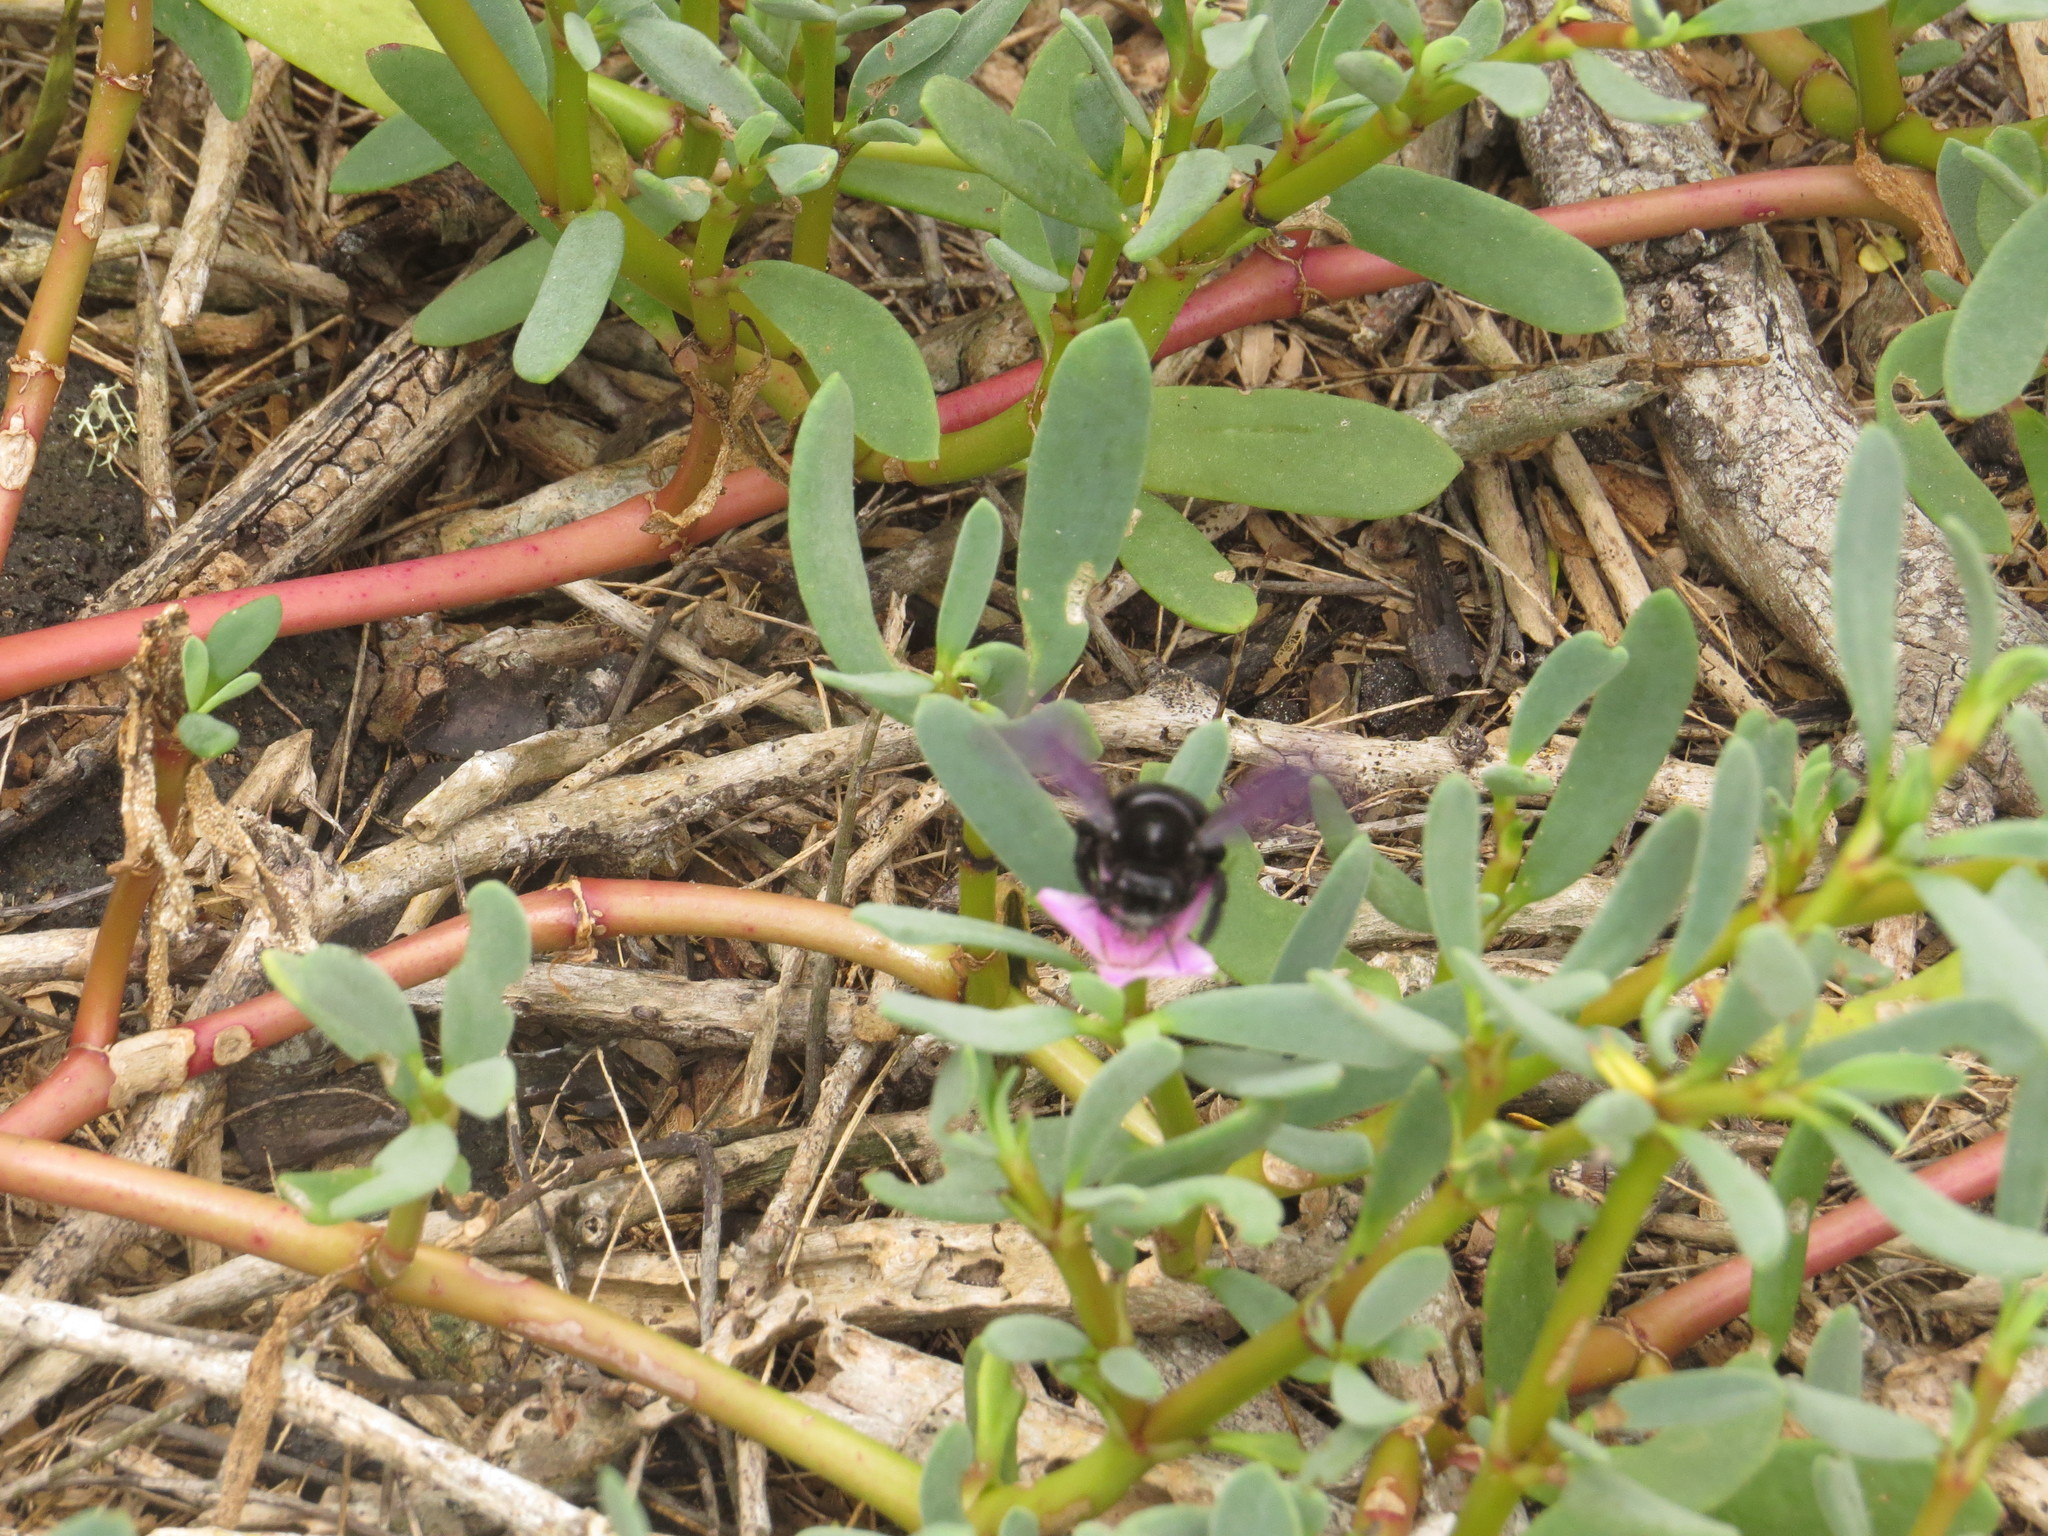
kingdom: Animalia
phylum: Arthropoda
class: Insecta
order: Hymenoptera
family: Apidae
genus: Xylocopa
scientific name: Xylocopa darwini
